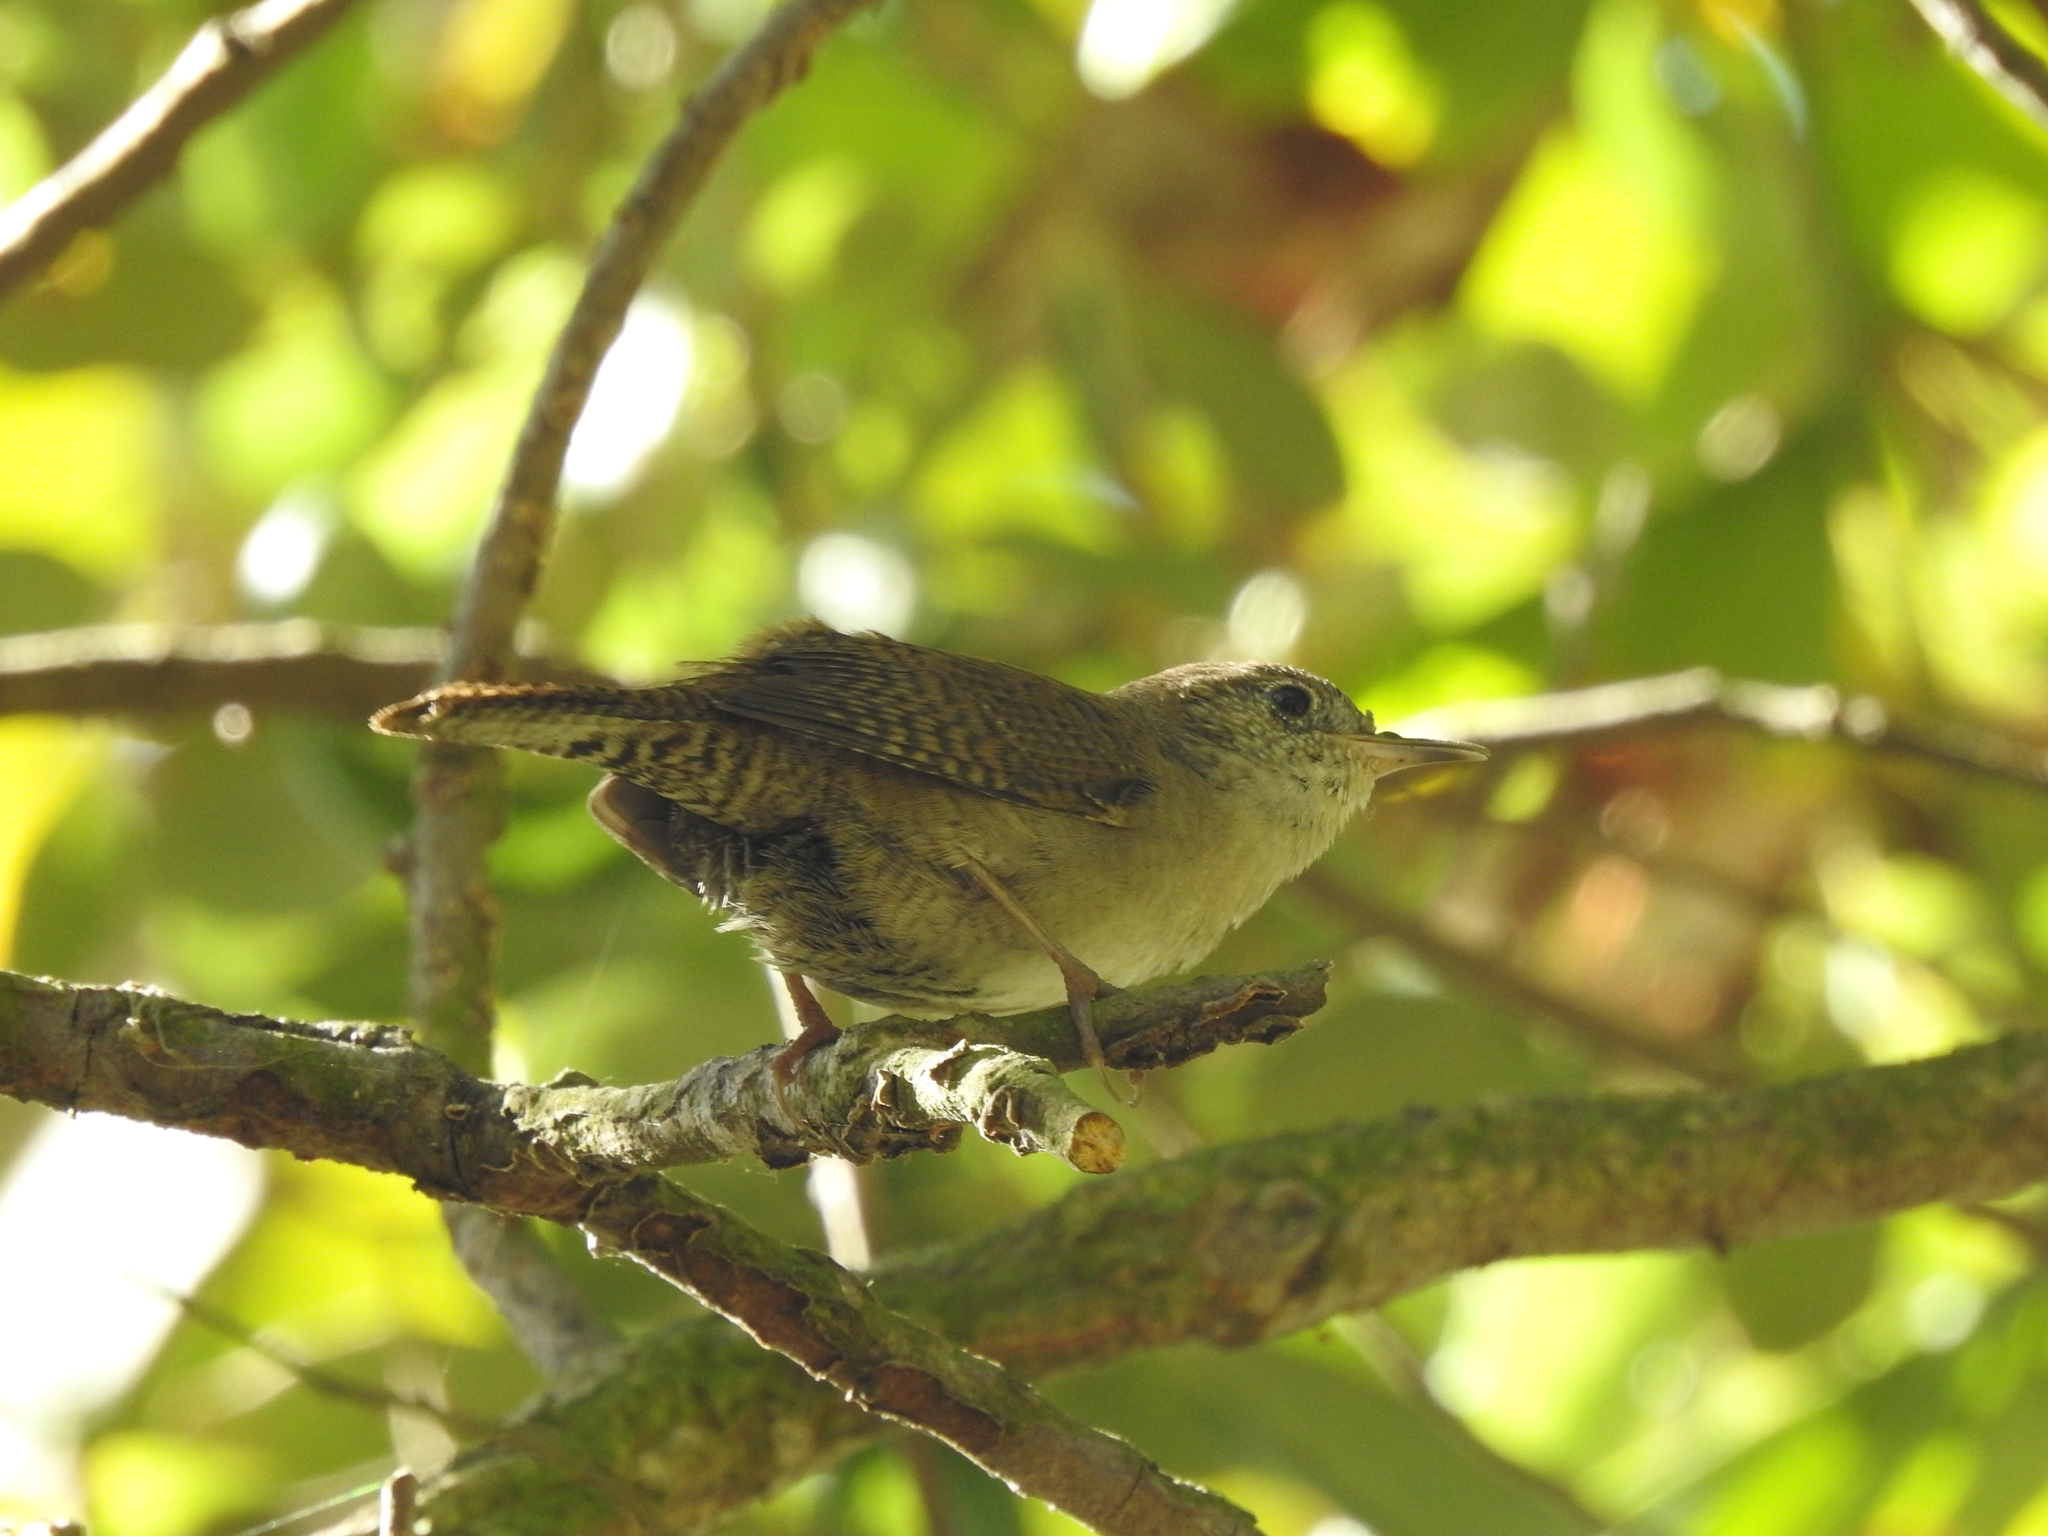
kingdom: Animalia
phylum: Chordata
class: Aves
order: Passeriformes
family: Troglodytidae
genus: Troglodytes
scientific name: Troglodytes aedon
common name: House wren
